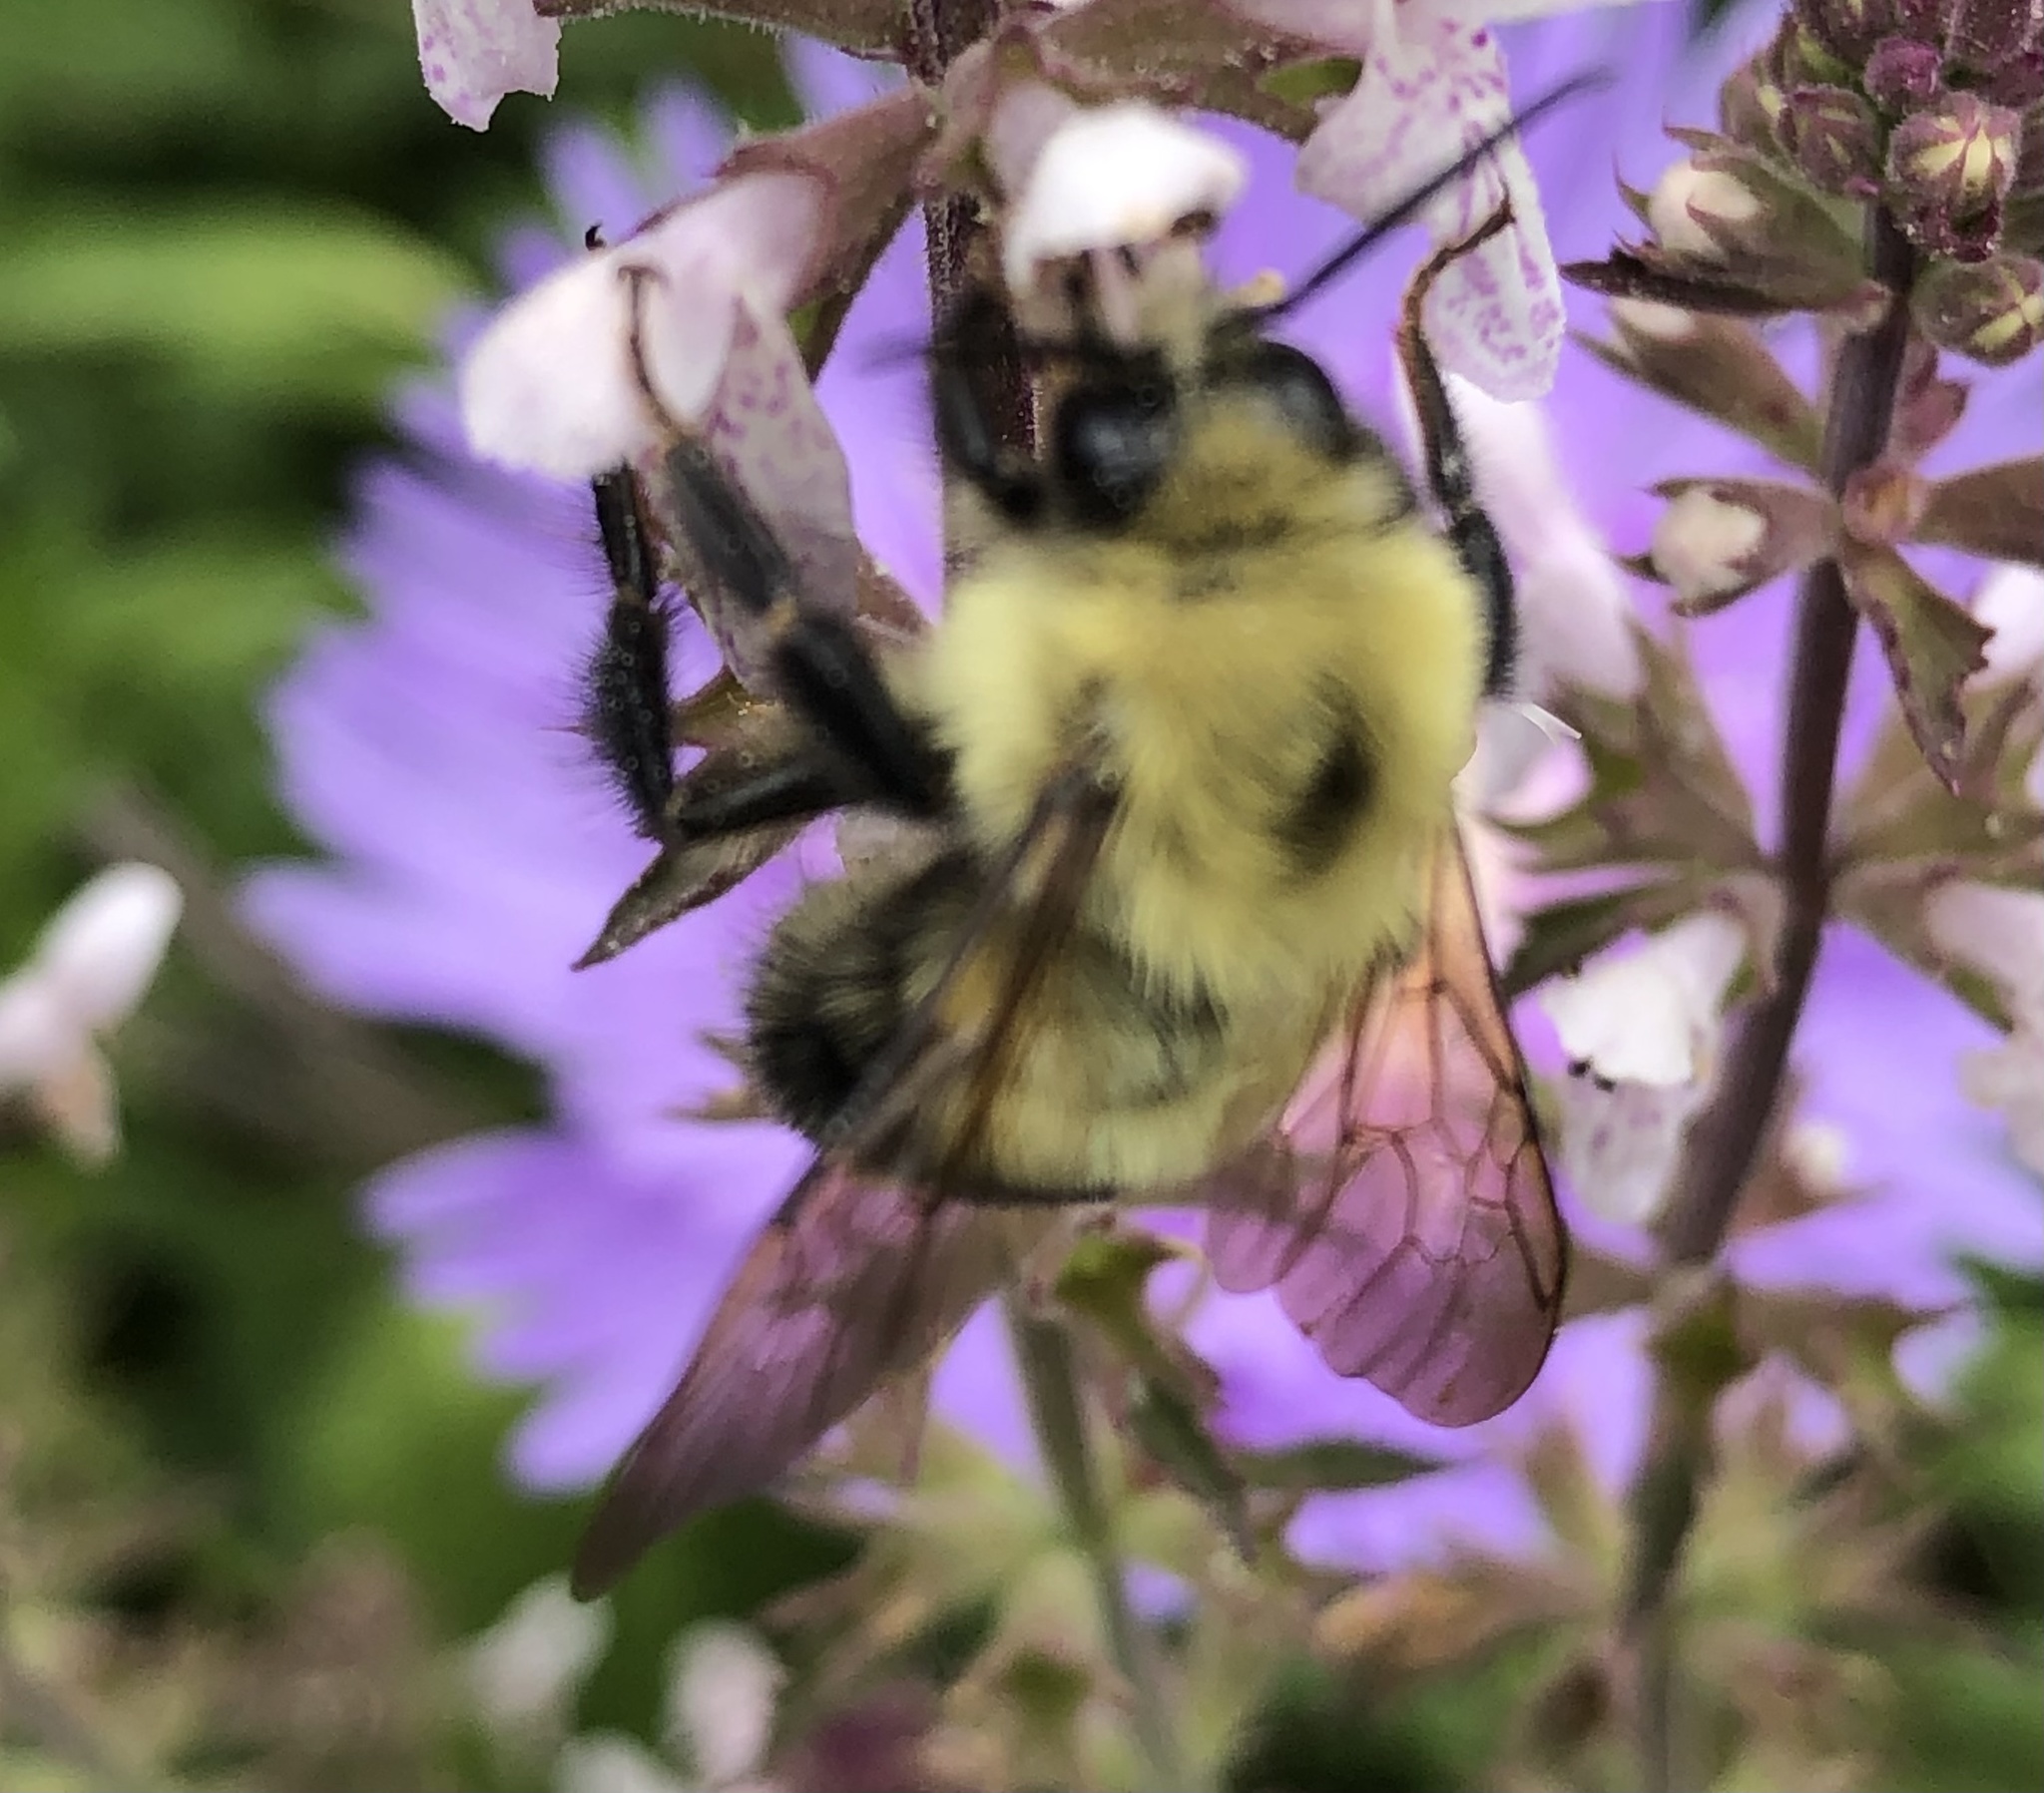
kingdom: Animalia
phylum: Arthropoda
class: Insecta
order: Hymenoptera
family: Apidae
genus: Bombus
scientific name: Bombus bimaculatus
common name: Two-spotted bumble bee
